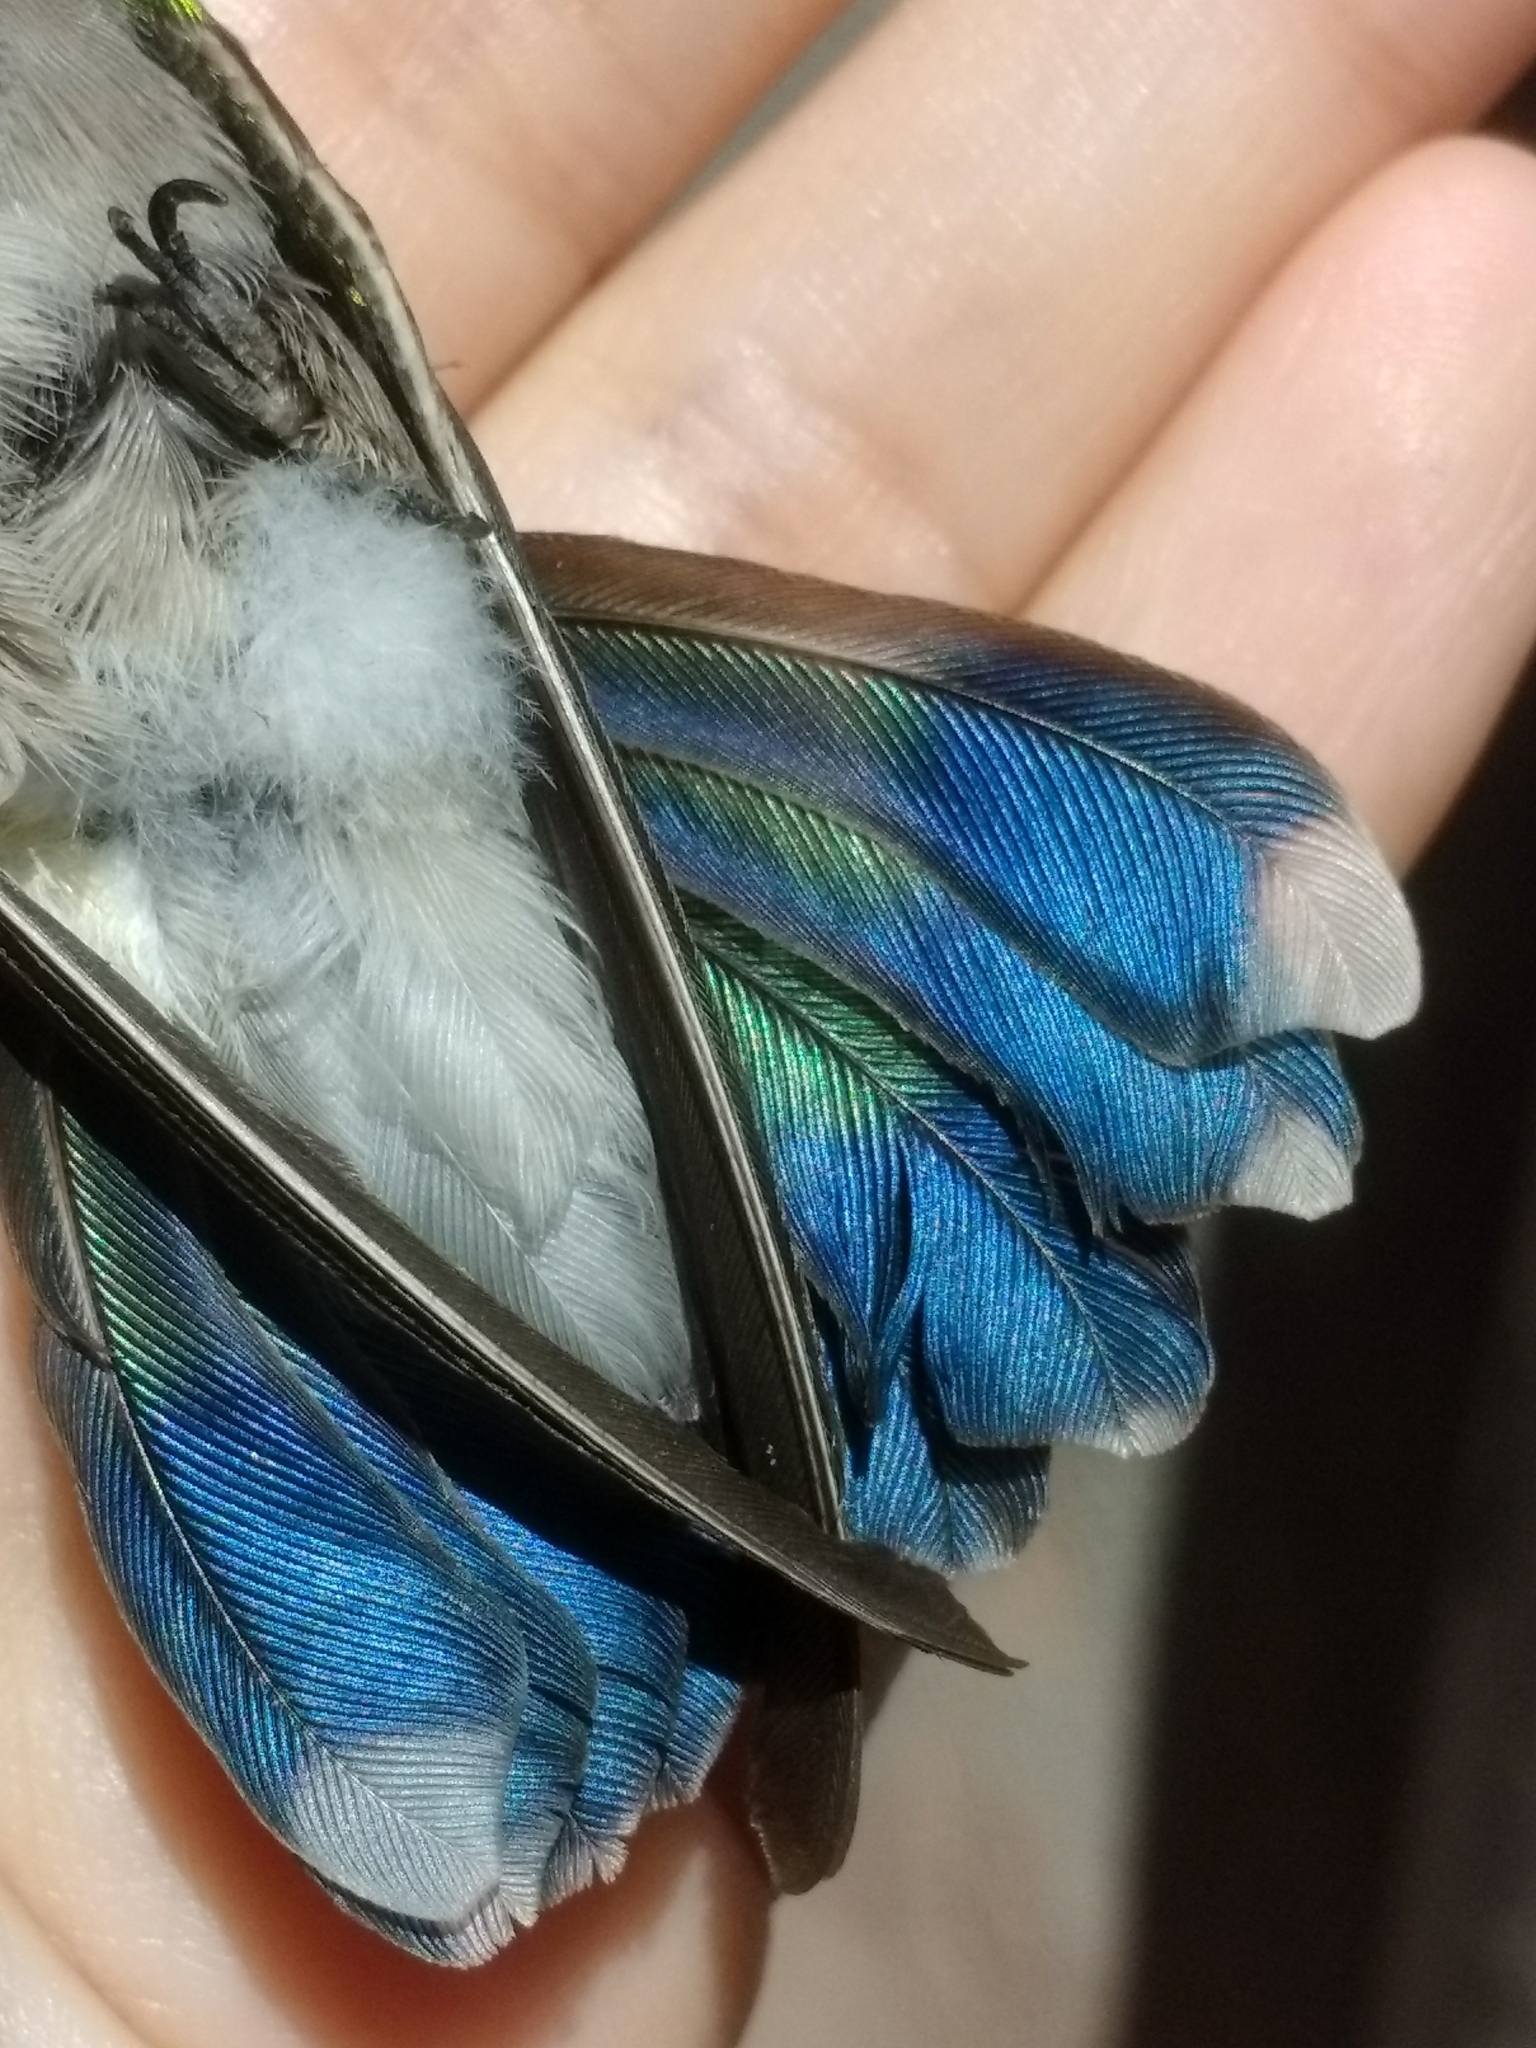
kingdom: Animalia
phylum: Chordata
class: Aves
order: Apodiformes
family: Trochilidae
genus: Cynanthus
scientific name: Cynanthus latirostris
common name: Broad-billed hummingbird
